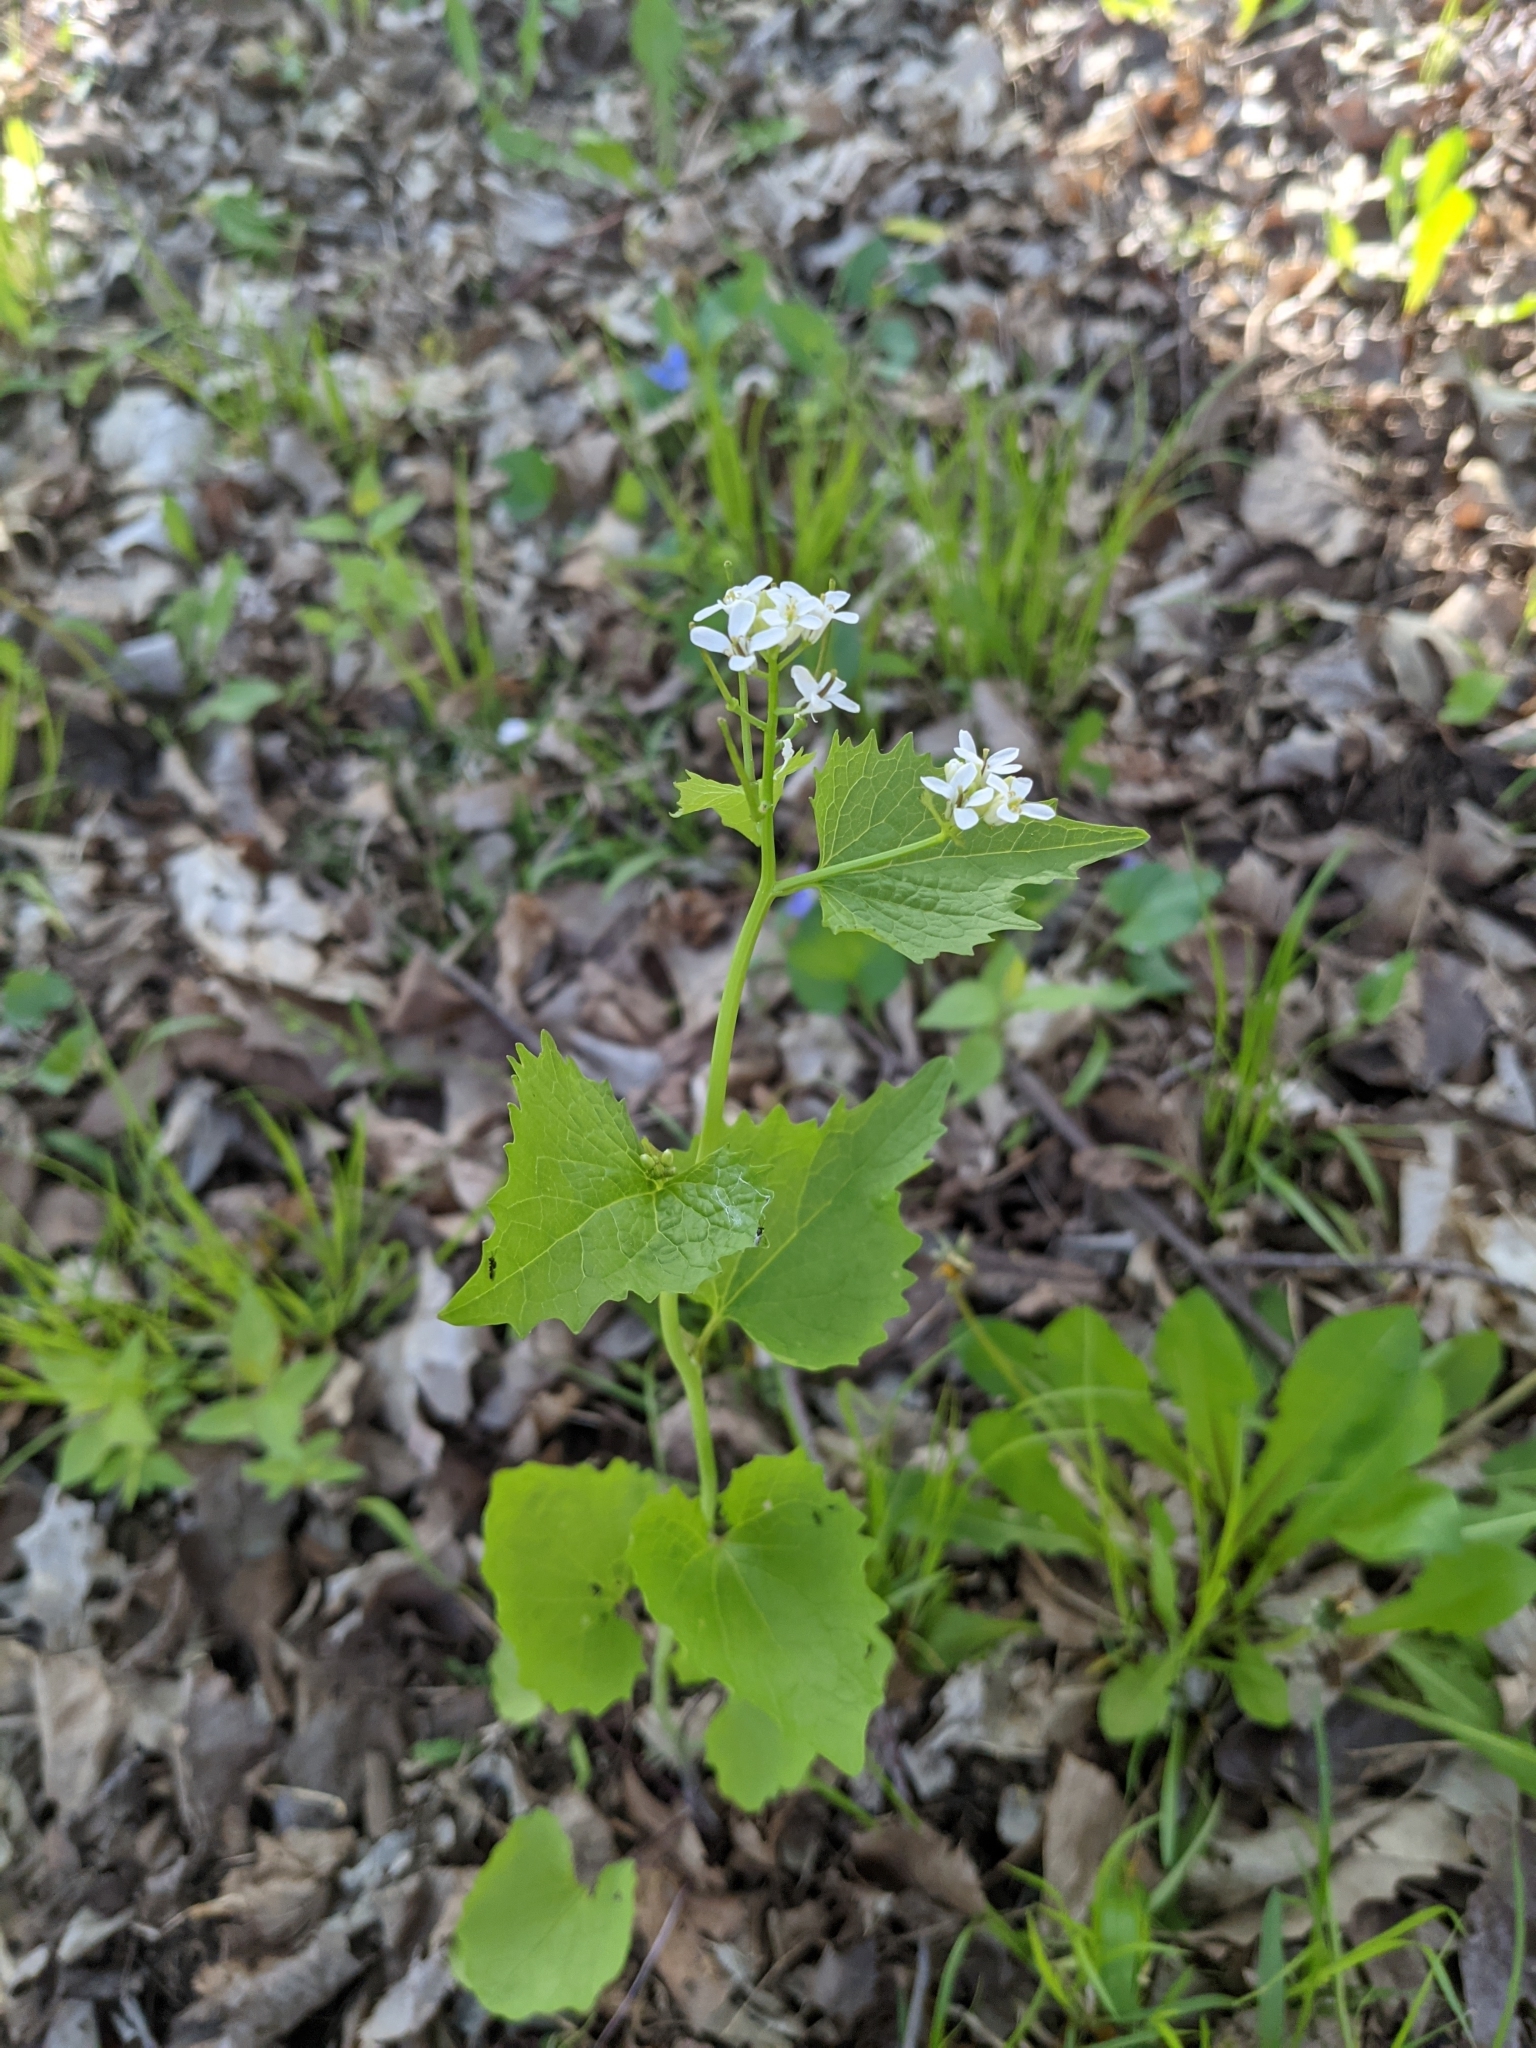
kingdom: Plantae
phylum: Tracheophyta
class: Magnoliopsida
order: Brassicales
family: Brassicaceae
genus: Alliaria
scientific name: Alliaria petiolata
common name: Garlic mustard
